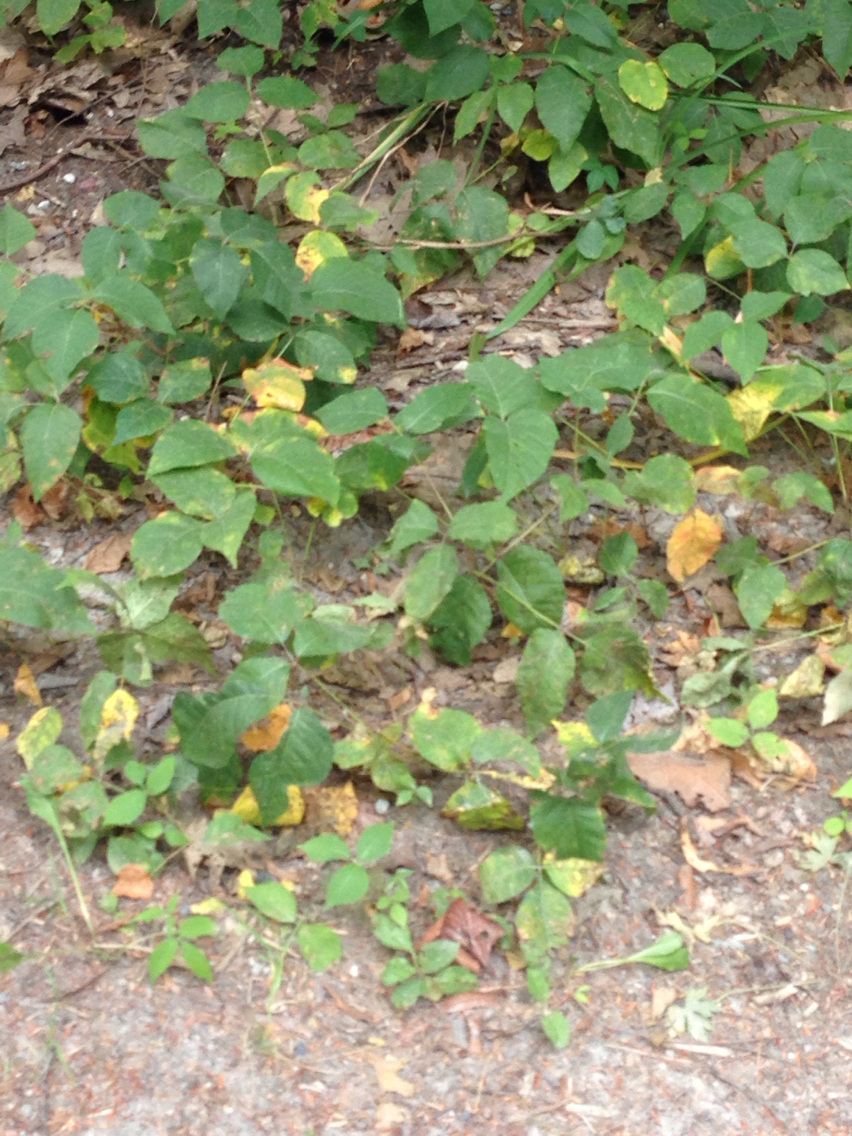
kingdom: Plantae
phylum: Tracheophyta
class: Magnoliopsida
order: Sapindales
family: Anacardiaceae
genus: Toxicodendron
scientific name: Toxicodendron radicans
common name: Poison ivy
